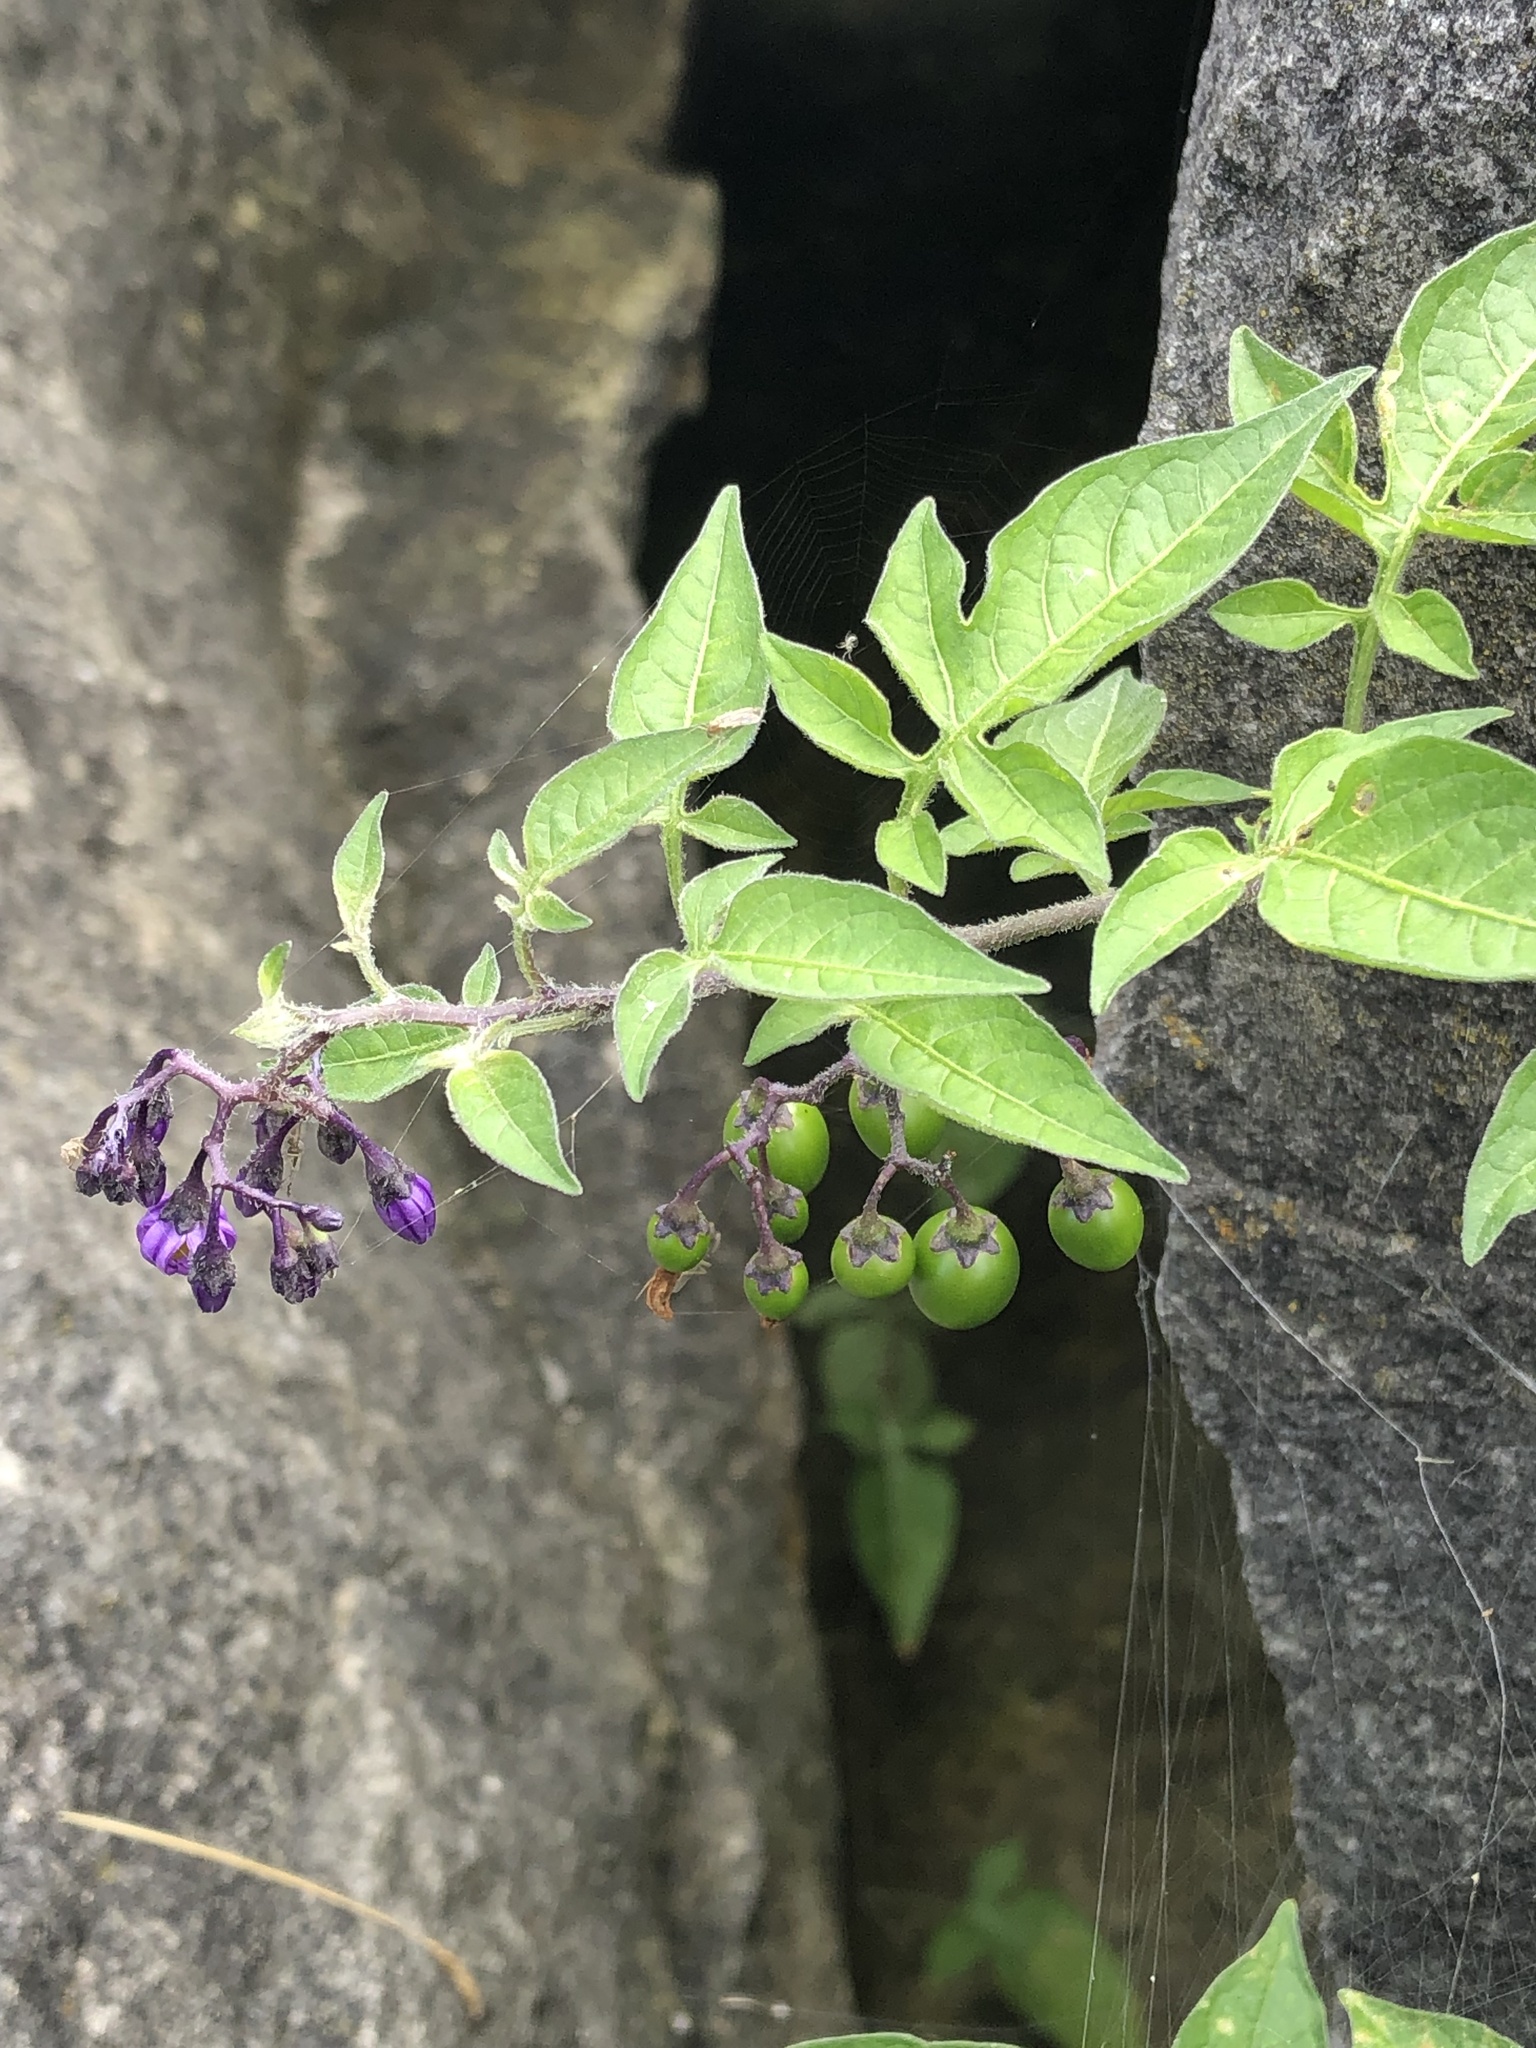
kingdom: Plantae
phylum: Tracheophyta
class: Magnoliopsida
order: Solanales
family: Solanaceae
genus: Solanum
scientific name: Solanum dulcamara
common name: Climbing nightshade
